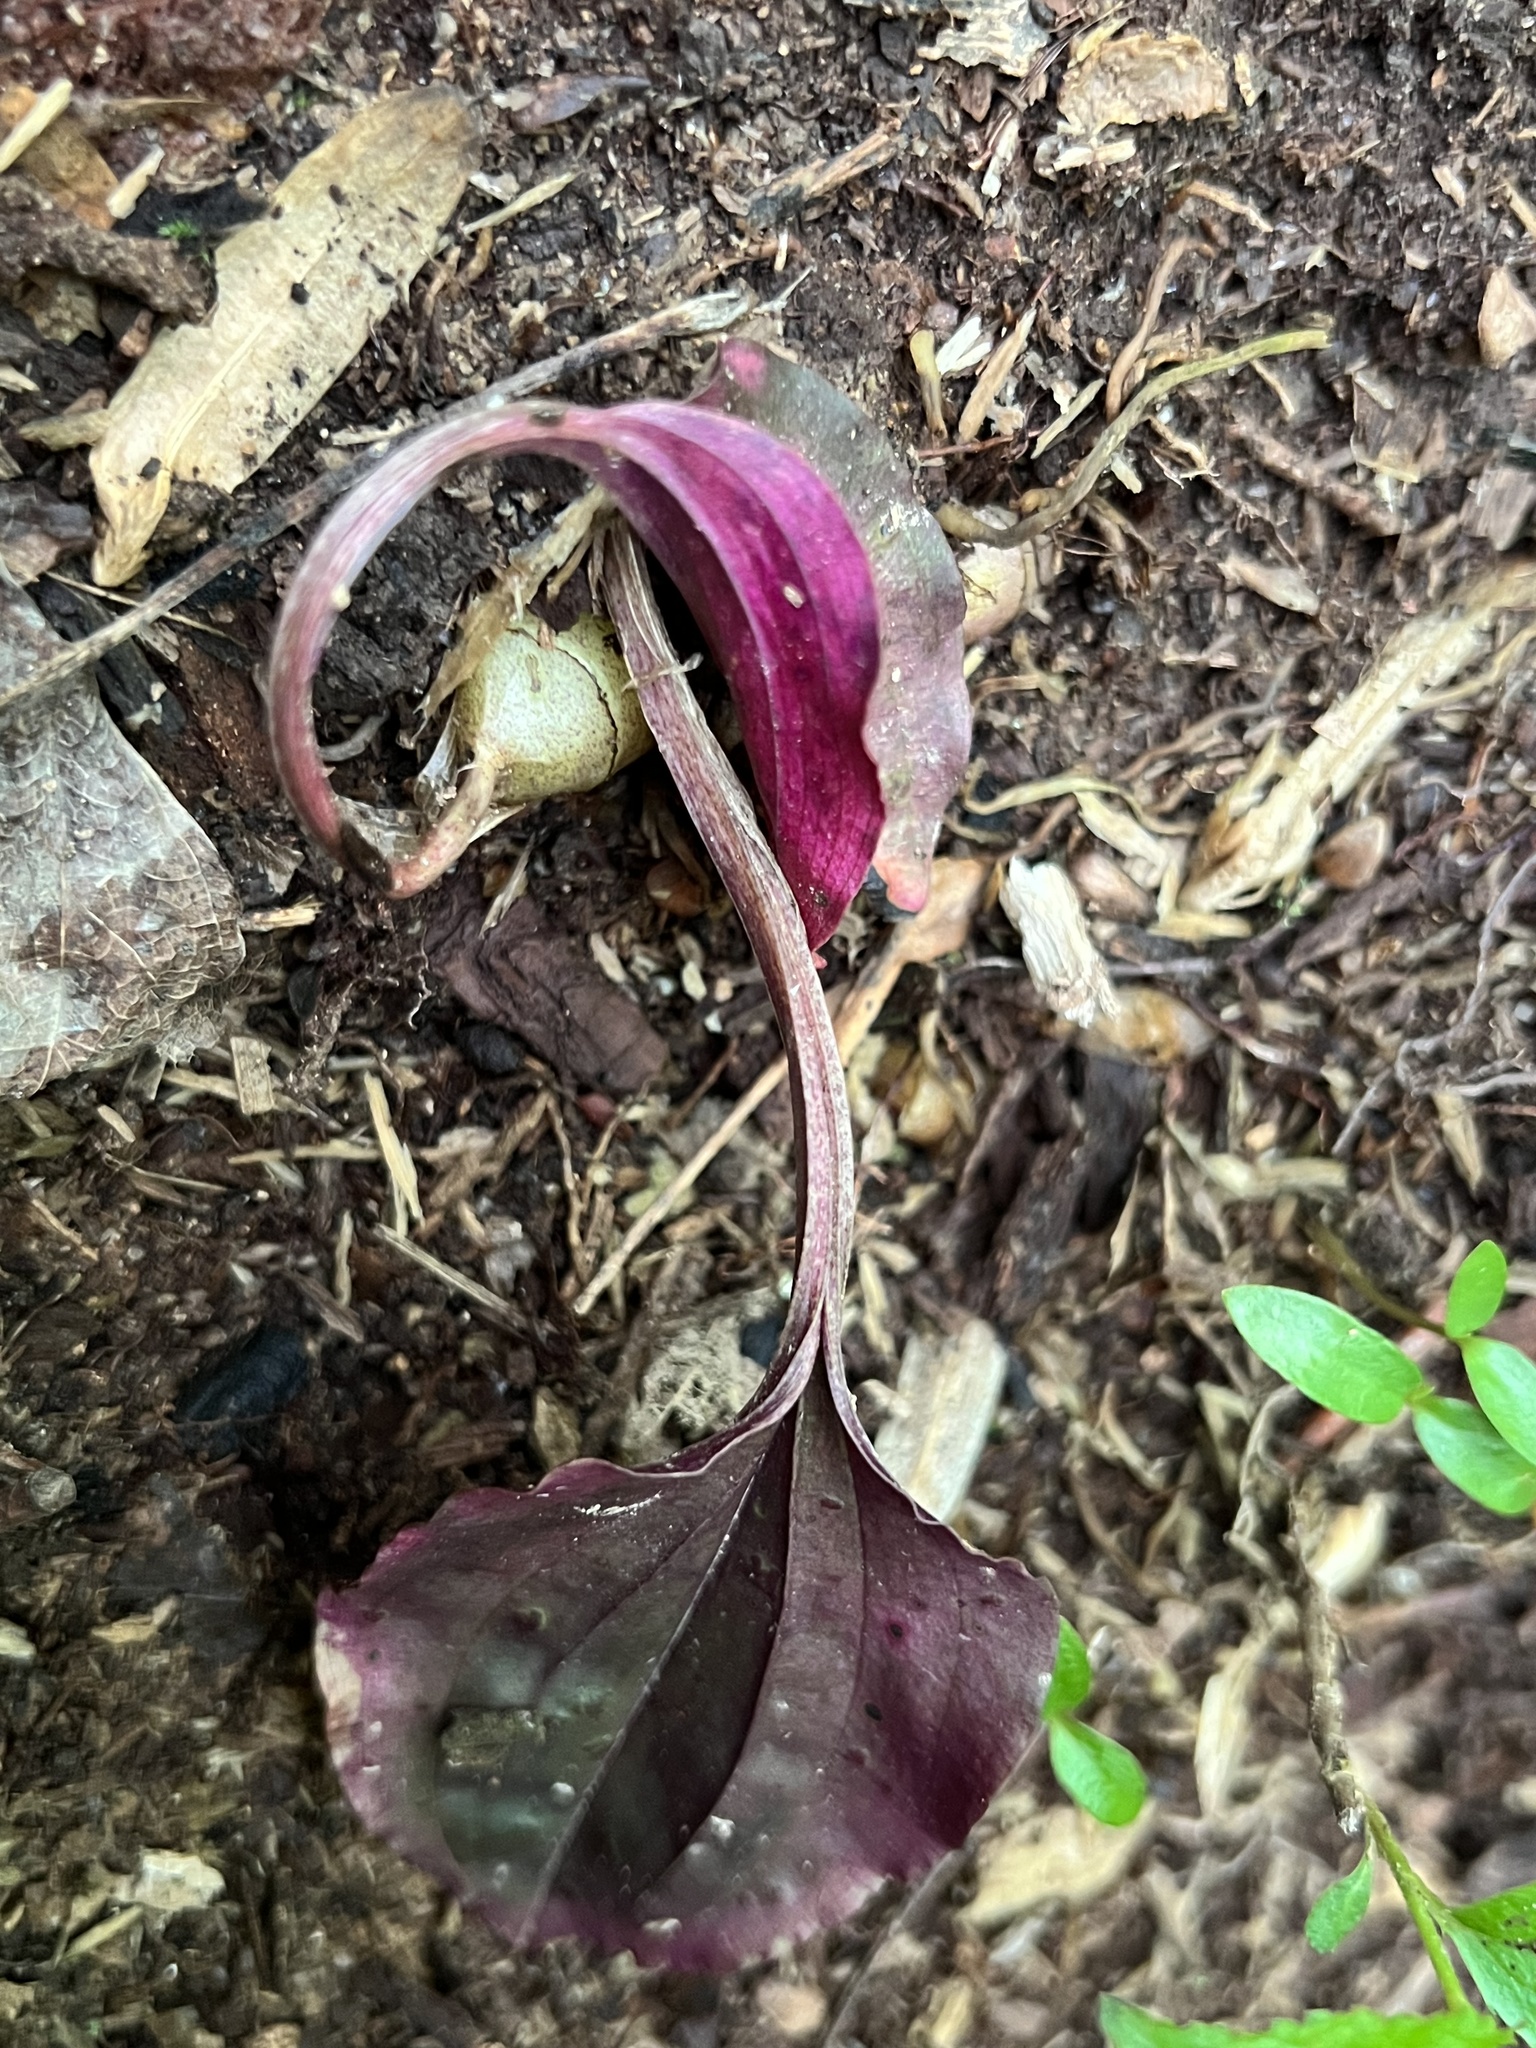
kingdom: Plantae
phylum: Tracheophyta
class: Liliopsida
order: Asparagales
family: Orchidaceae
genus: Tipularia
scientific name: Tipularia discolor
